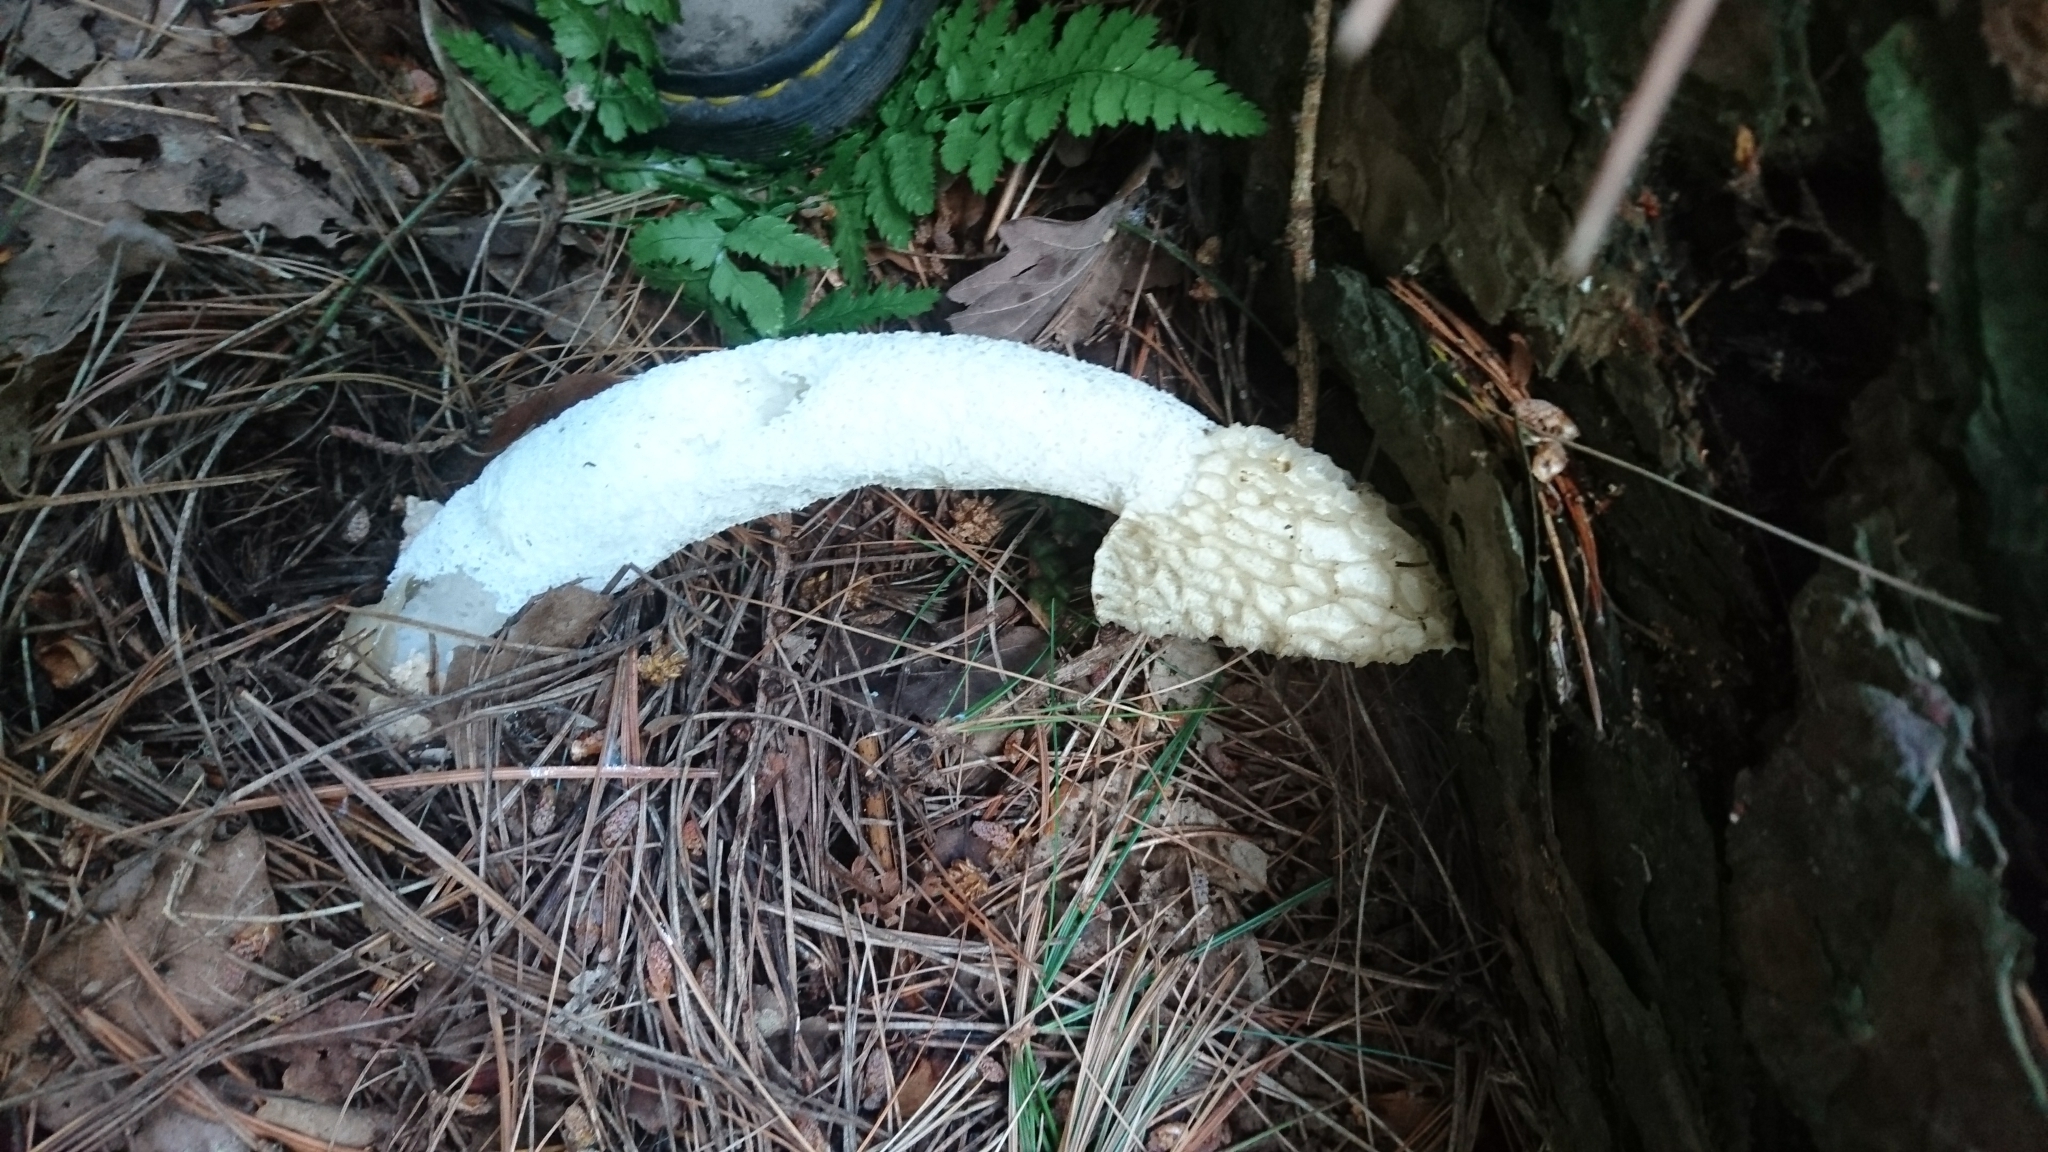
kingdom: Fungi
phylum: Basidiomycota
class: Agaricomycetes
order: Phallales
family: Phallaceae
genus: Phallus
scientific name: Phallus impudicus
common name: Common stinkhorn
